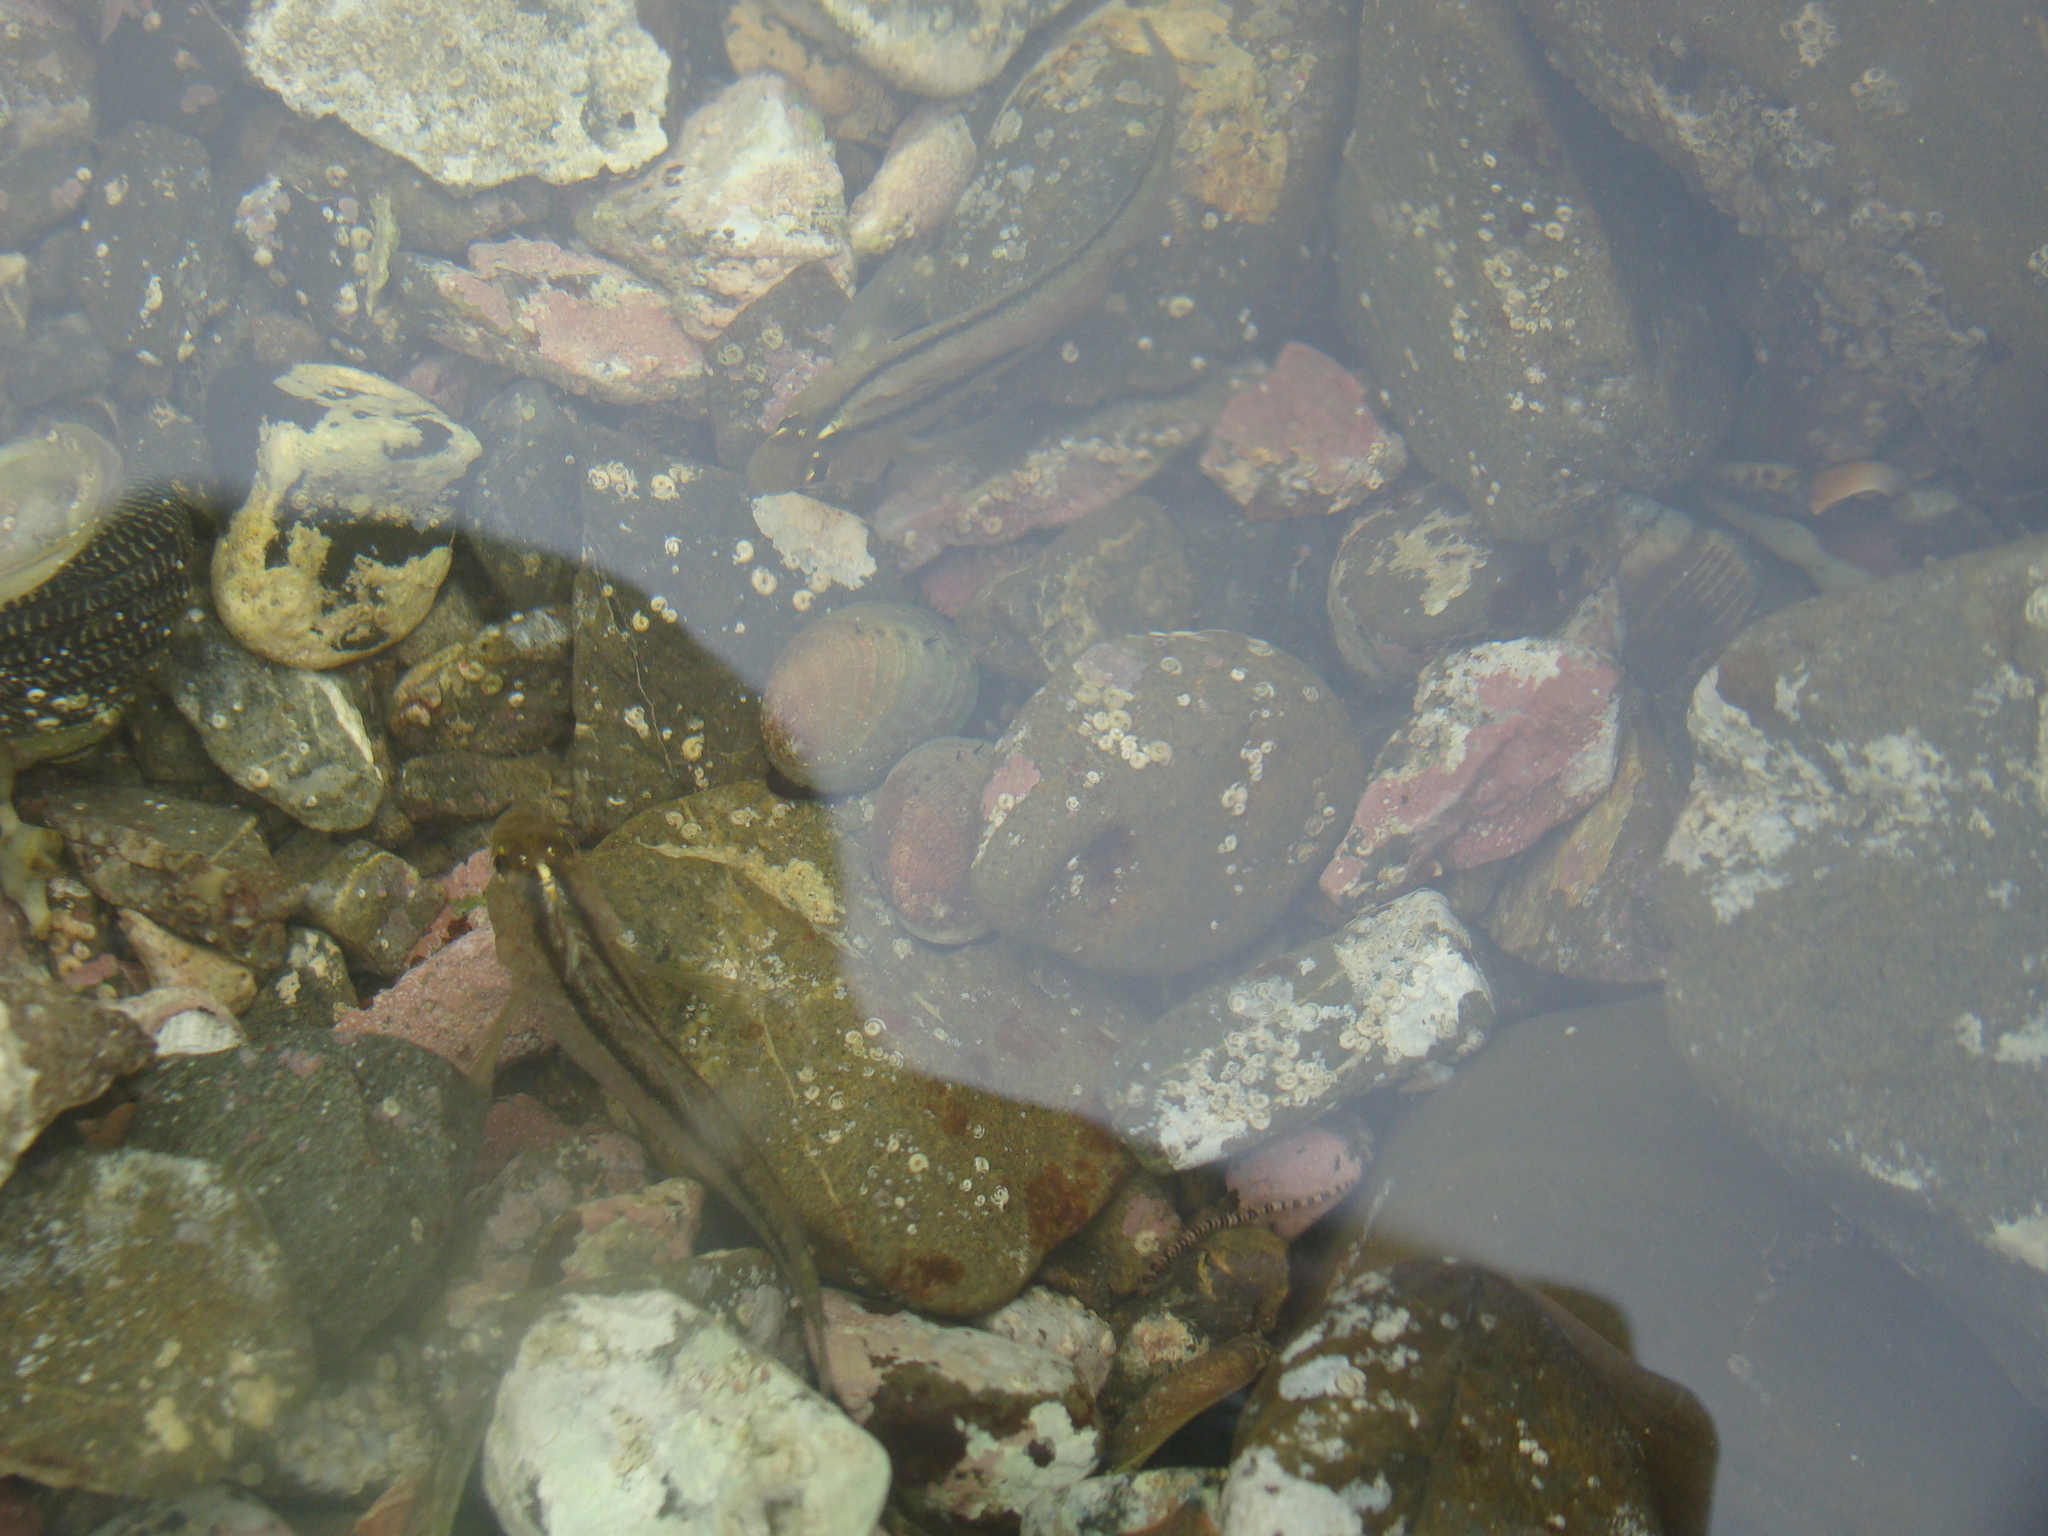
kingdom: Animalia
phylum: Chordata
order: Perciformes
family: Tripterygiidae
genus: Forsterygion
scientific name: Forsterygion lapillum
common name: Common triplefin
